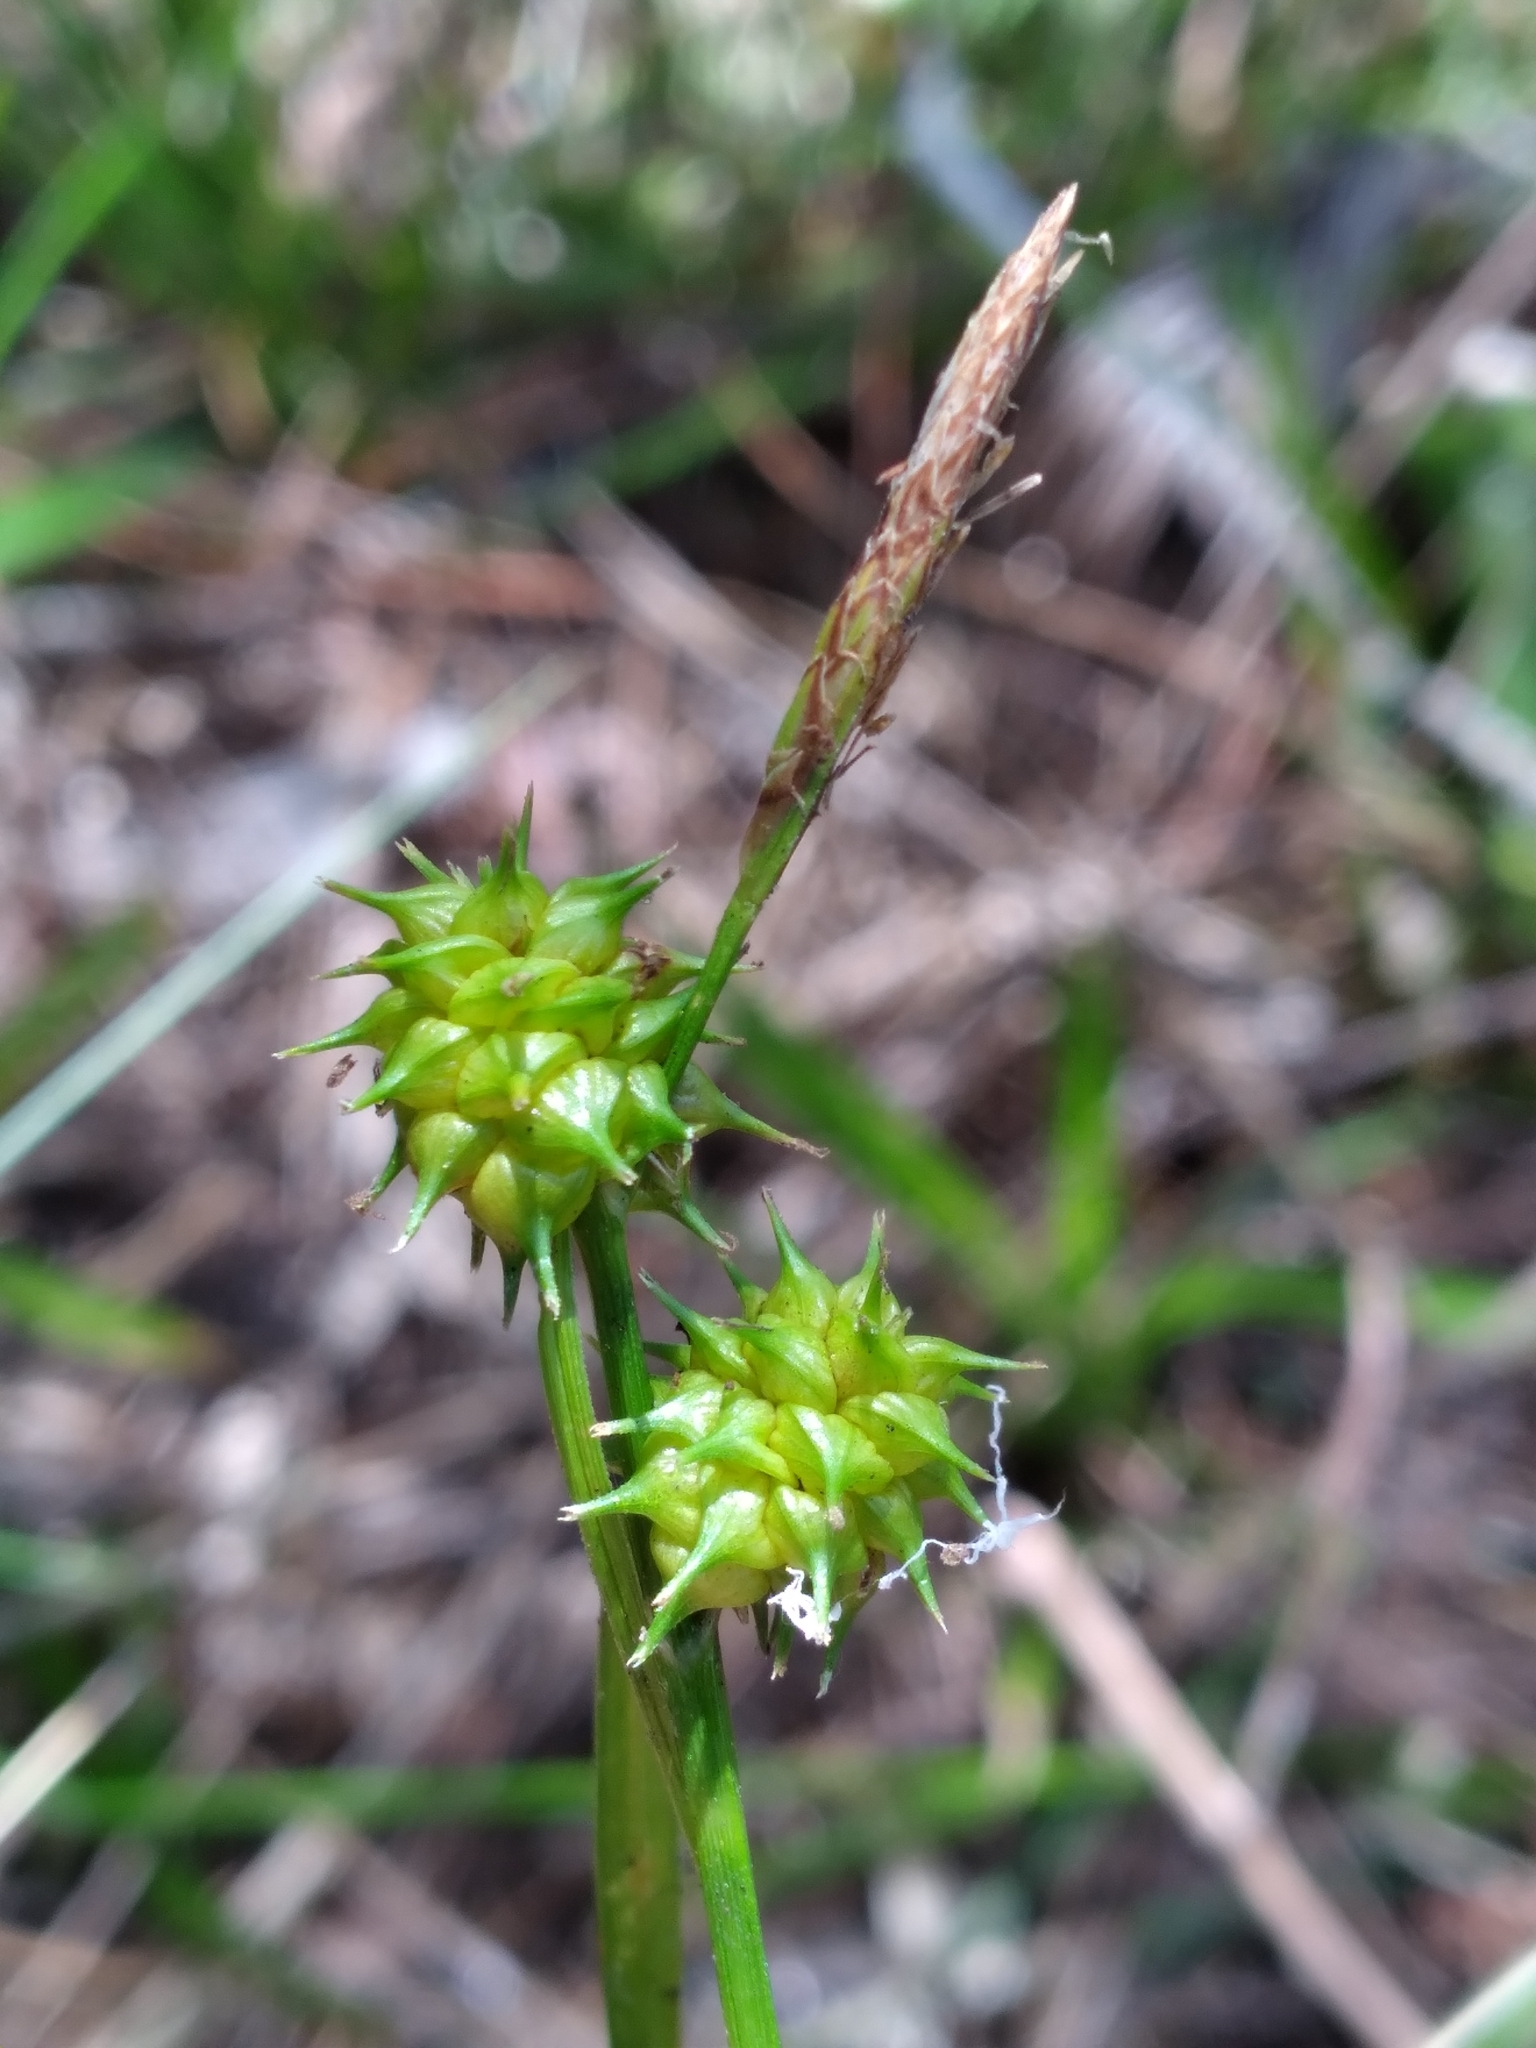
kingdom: Plantae
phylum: Tracheophyta
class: Liliopsida
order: Poales
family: Cyperaceae
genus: Carex
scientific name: Carex lutea
